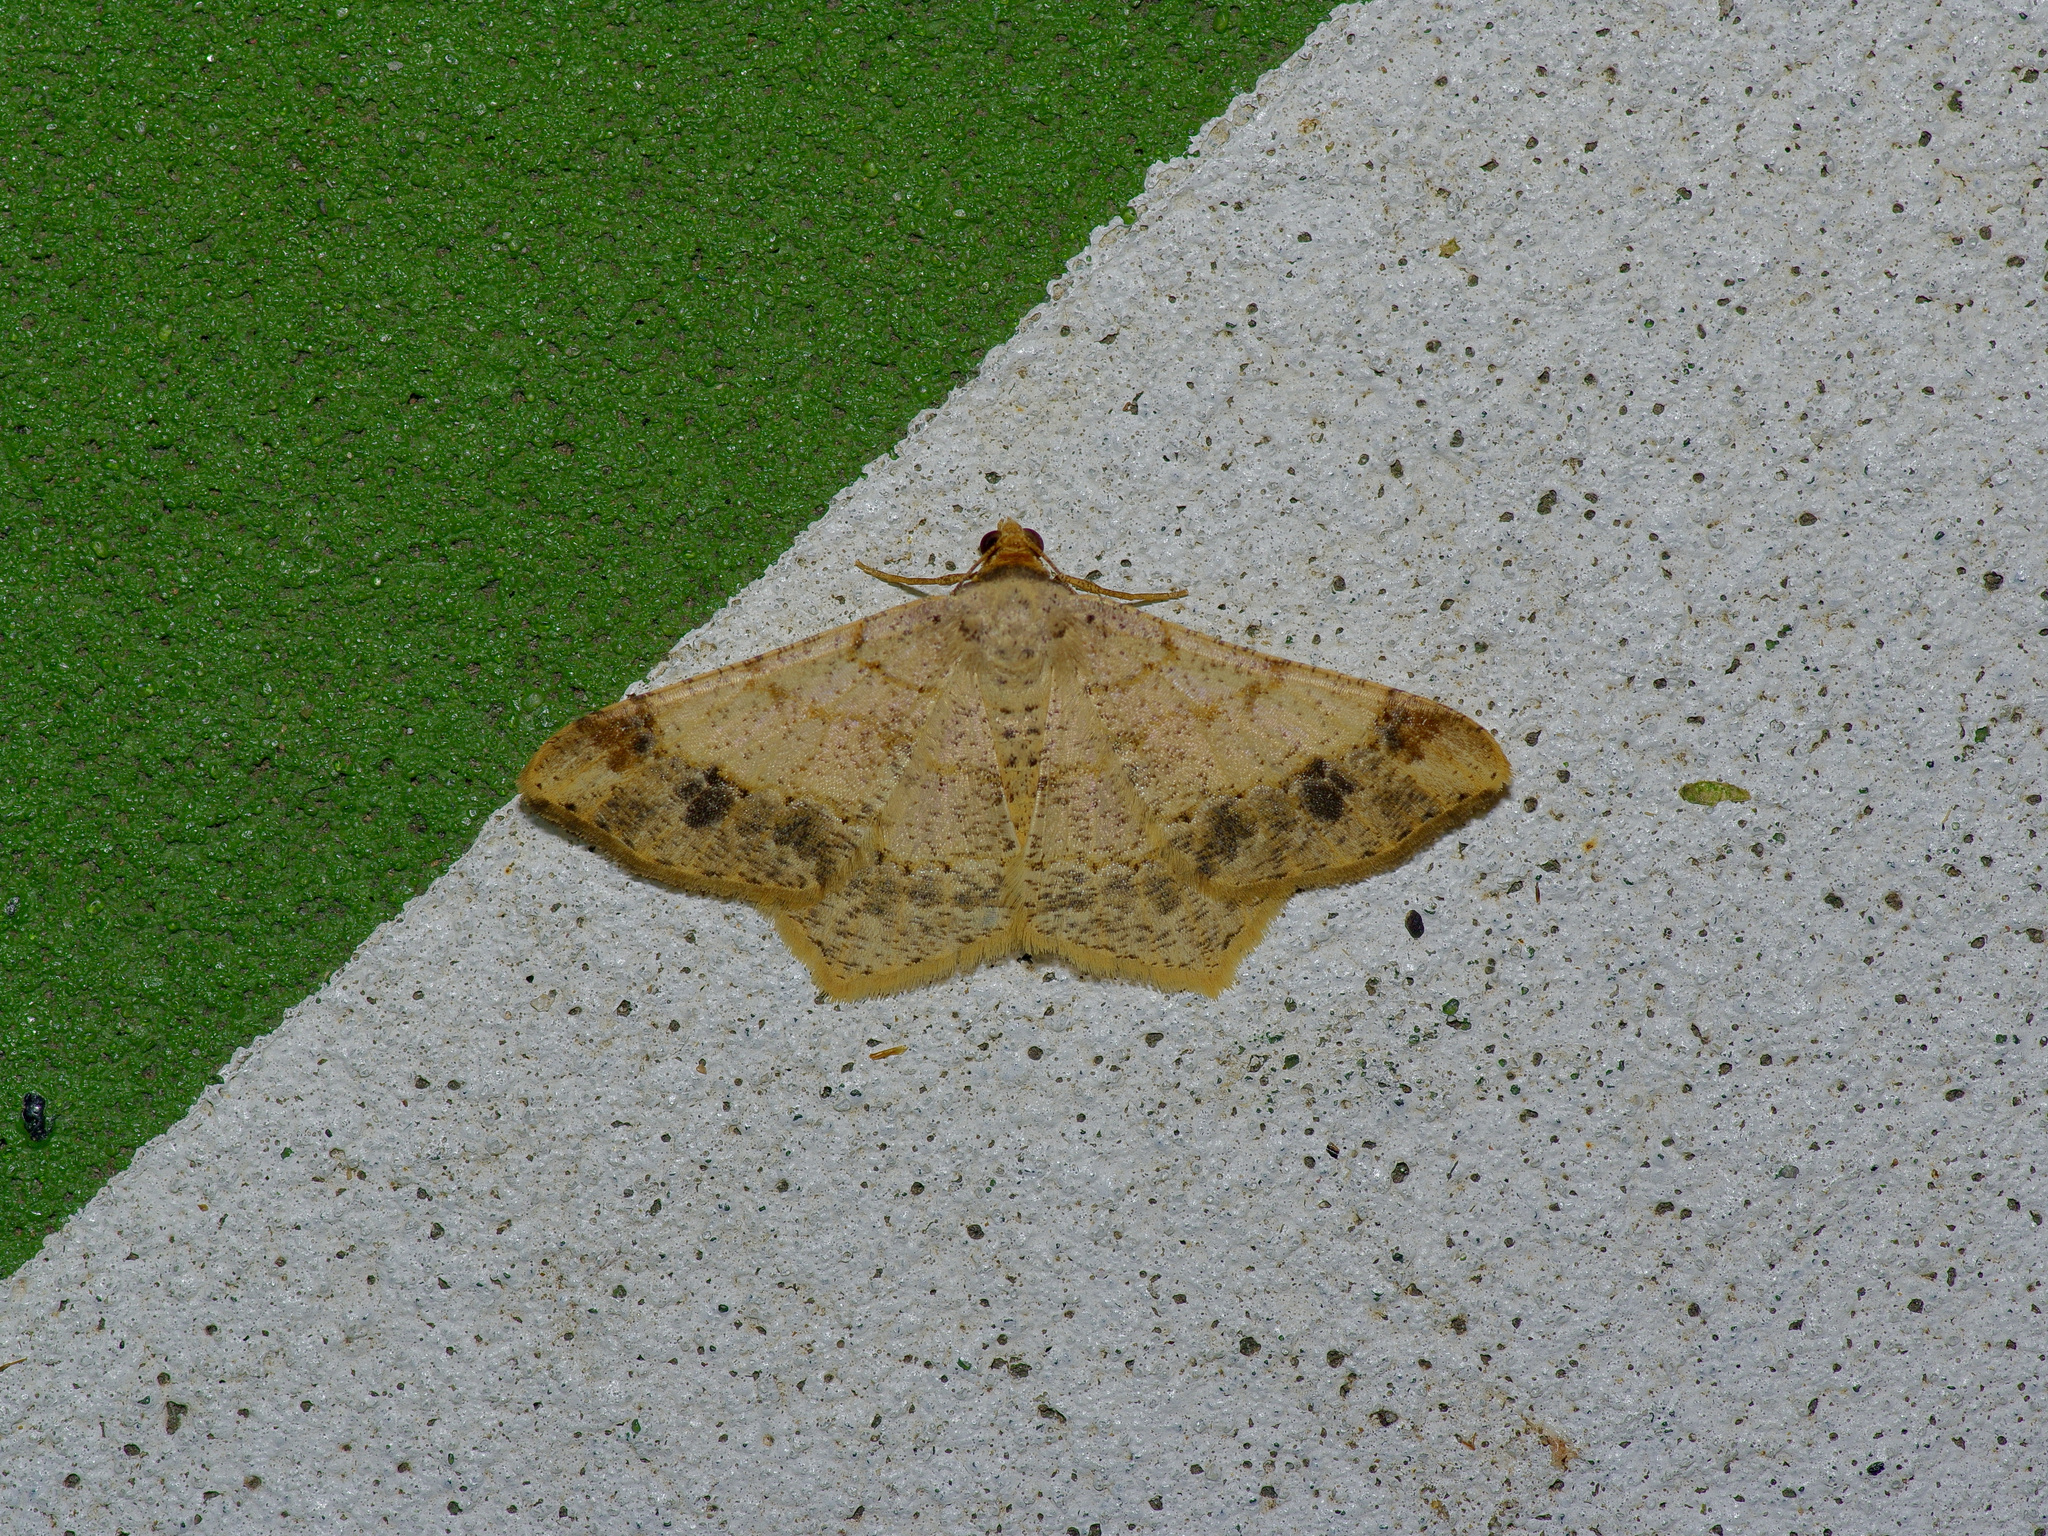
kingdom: Animalia
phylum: Arthropoda
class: Insecta
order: Lepidoptera
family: Geometridae
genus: Macaria
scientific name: Macaria abydata
